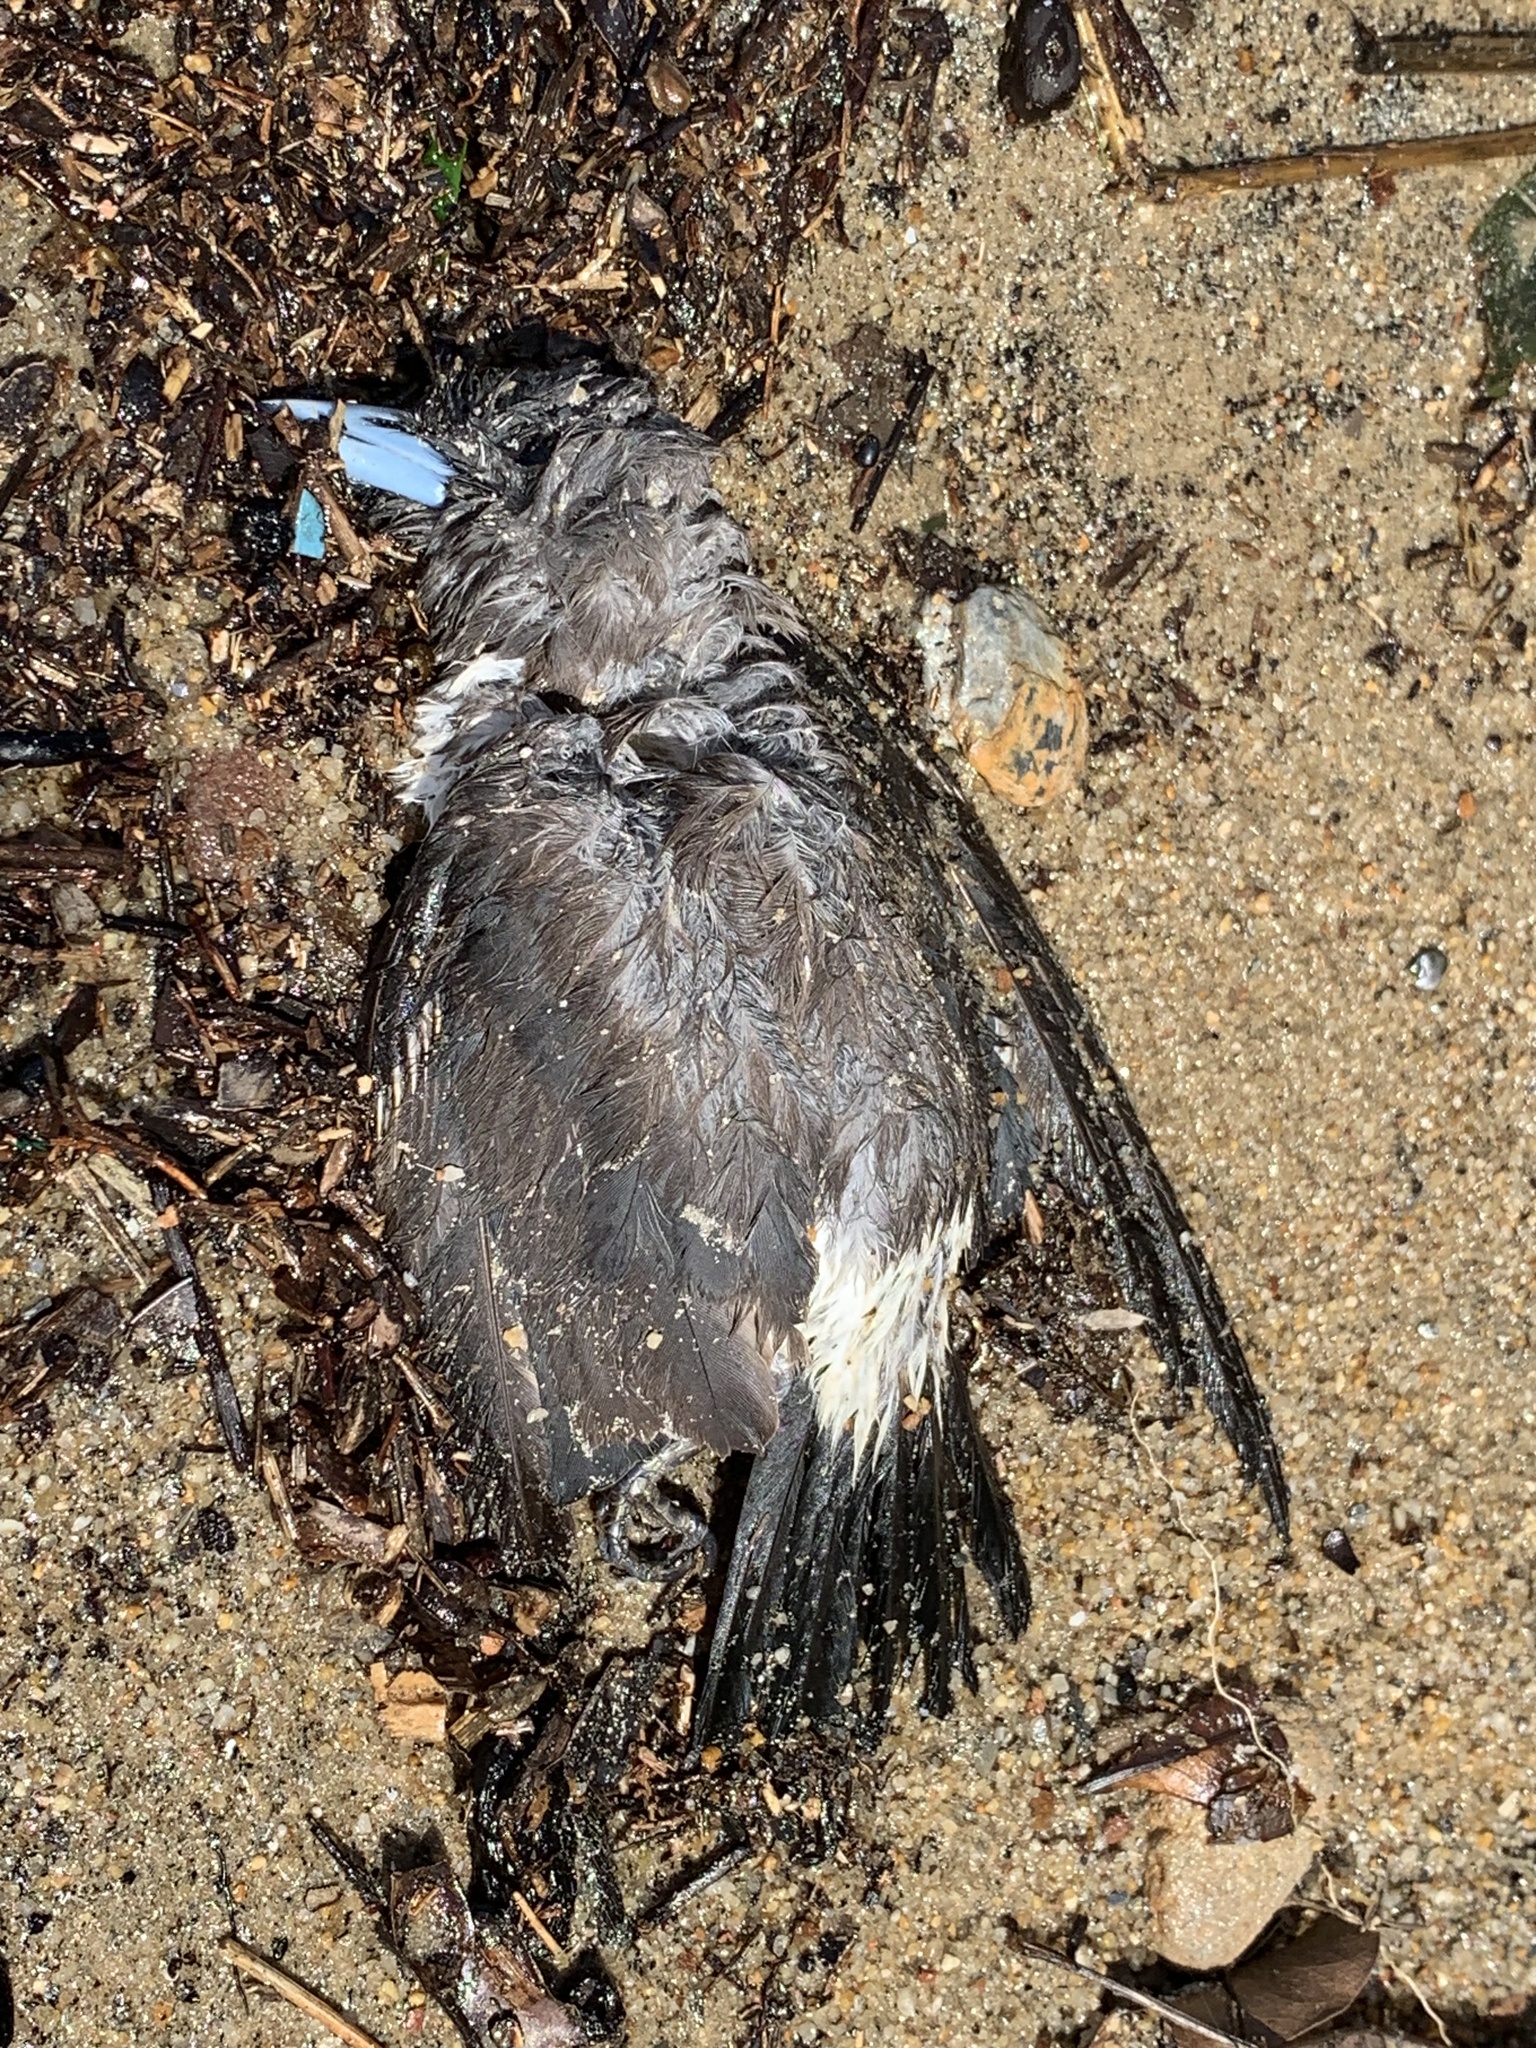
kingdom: Animalia
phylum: Chordata
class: Aves
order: Passeriformes
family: Artamidae
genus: Artamus
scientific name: Artamus leucoryn
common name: White-breasted woodswallow
